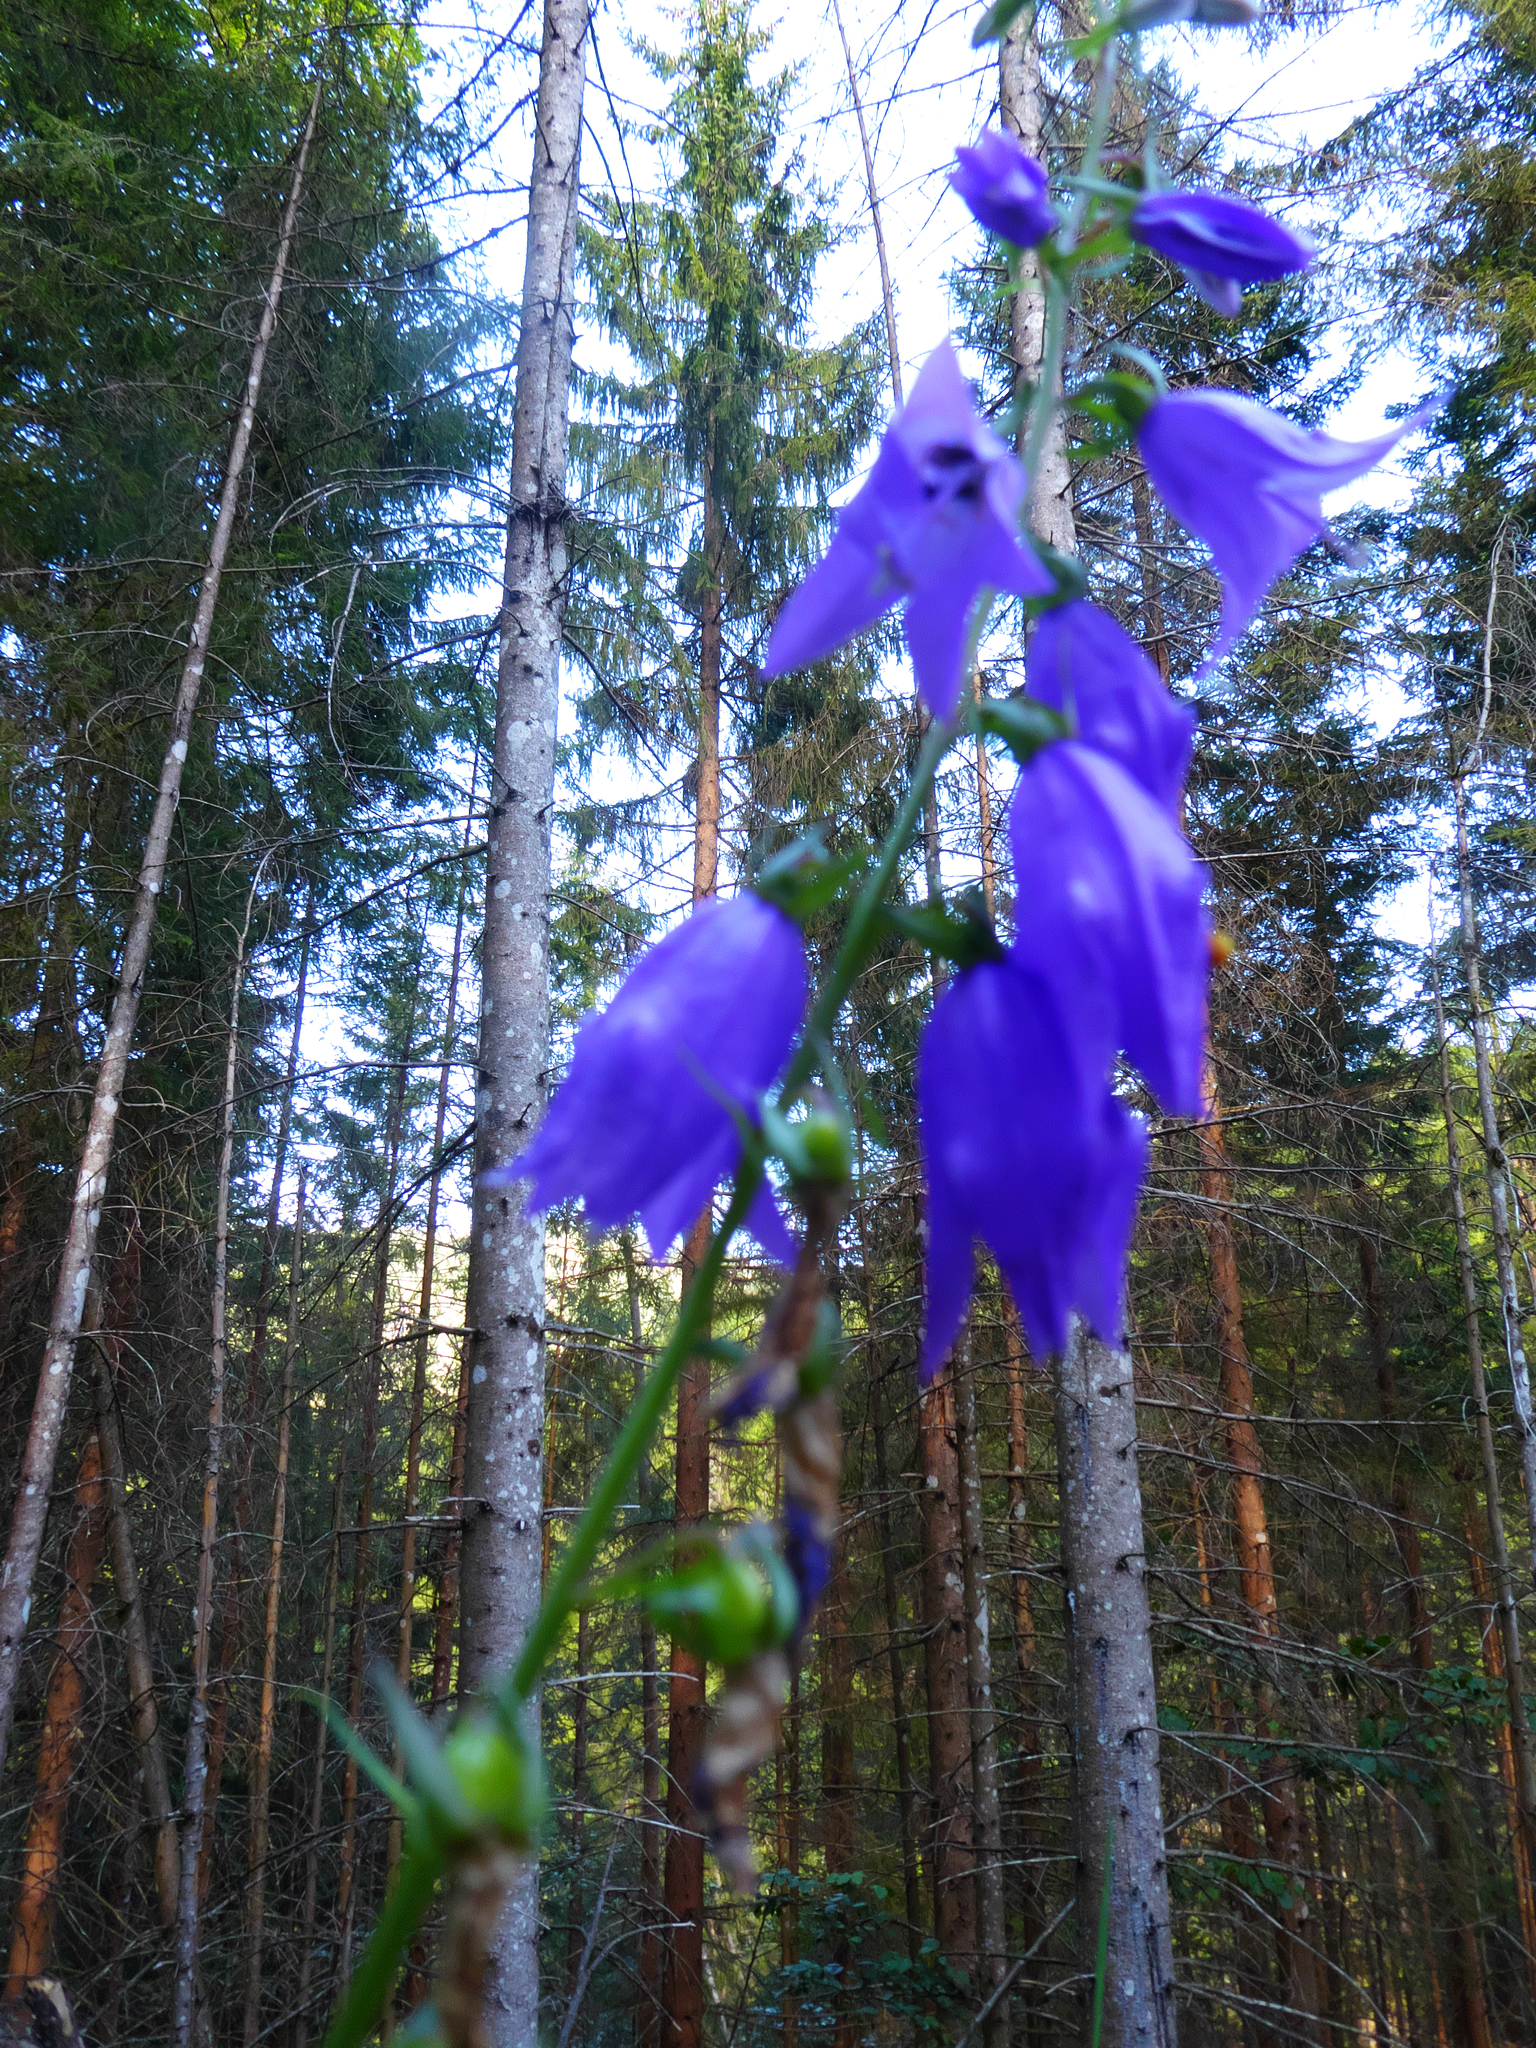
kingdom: Plantae
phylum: Tracheophyta
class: Magnoliopsida
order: Asterales
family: Campanulaceae
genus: Campanula
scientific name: Campanula rapunculoides
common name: Creeping bellflower
